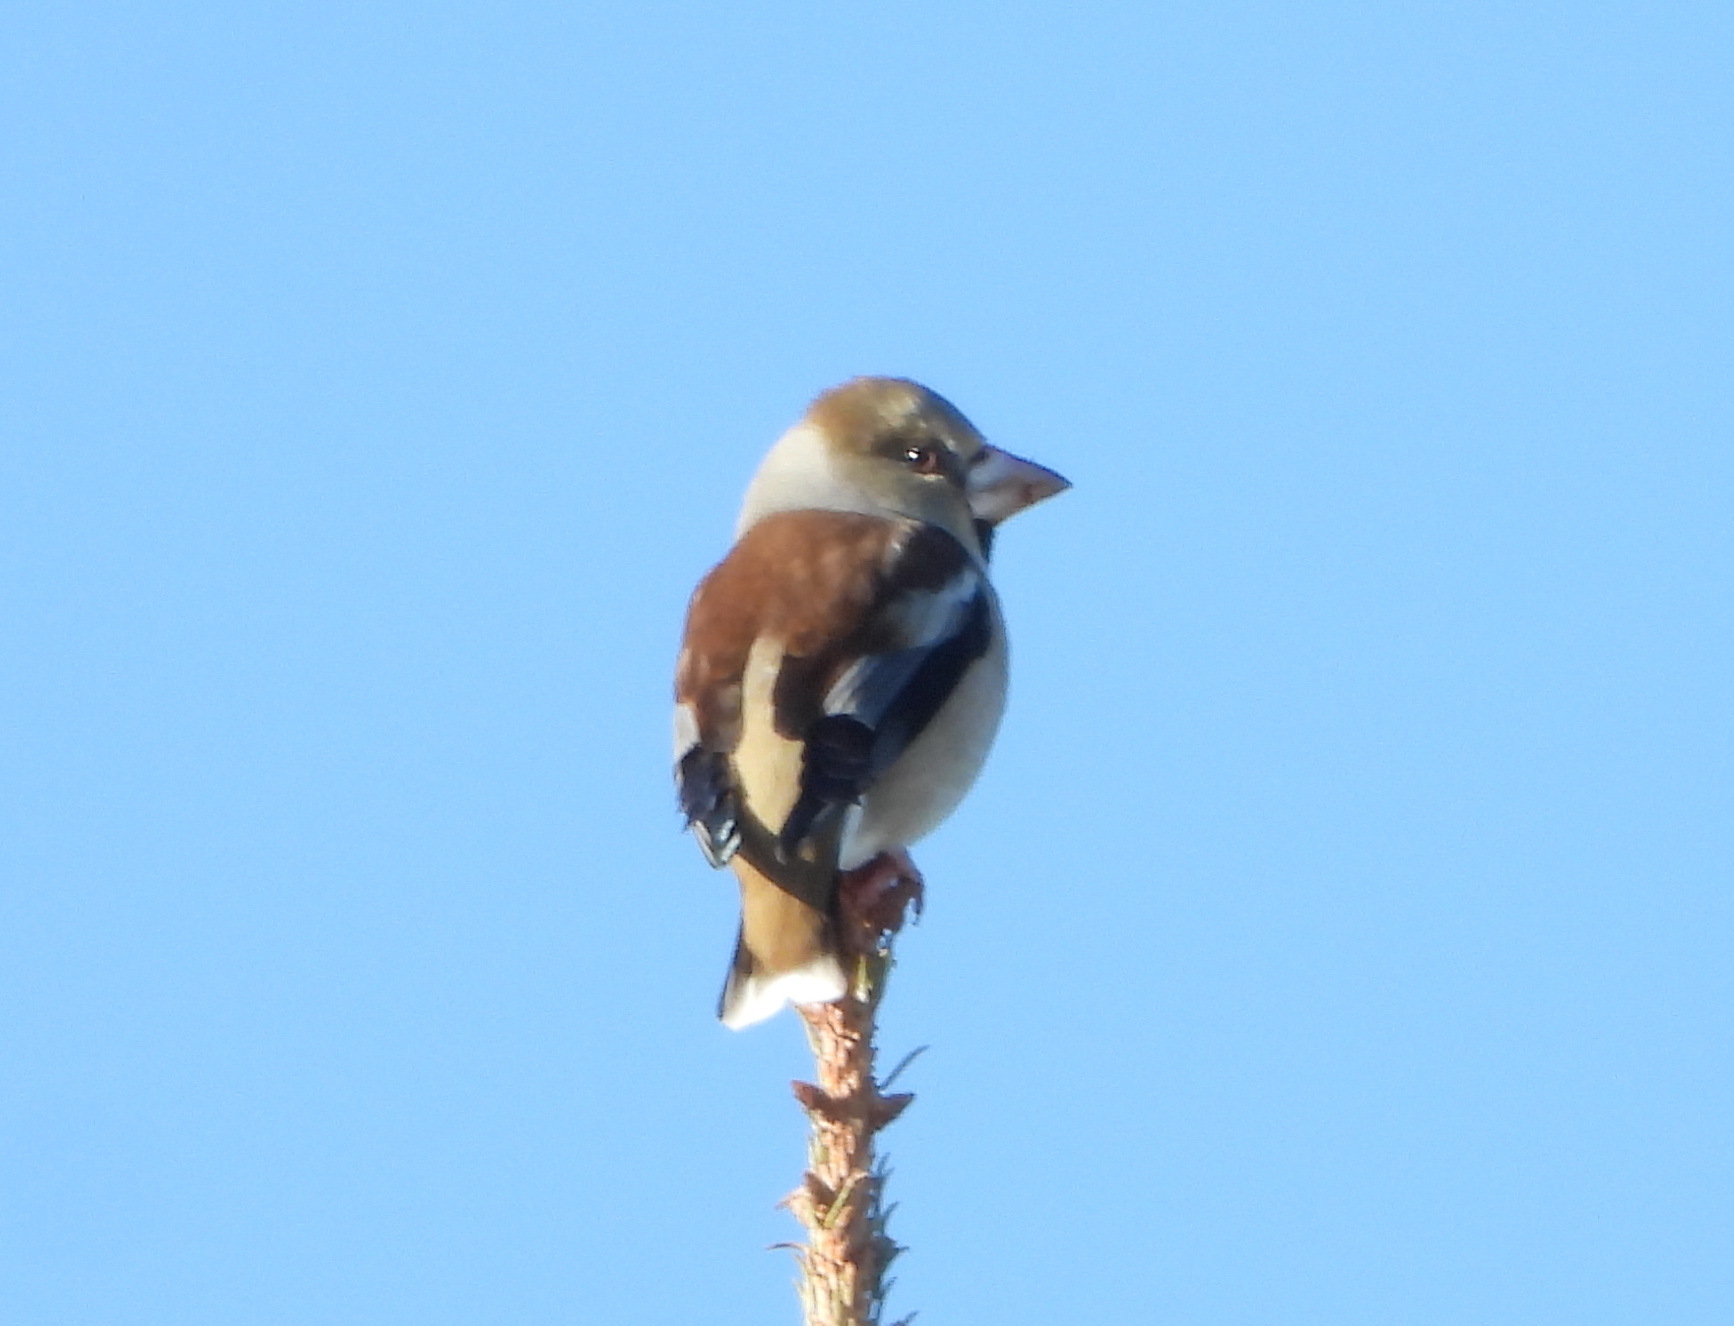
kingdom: Animalia
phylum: Chordata
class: Aves
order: Passeriformes
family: Fringillidae
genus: Coccothraustes
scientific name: Coccothraustes coccothraustes
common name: Hawfinch
